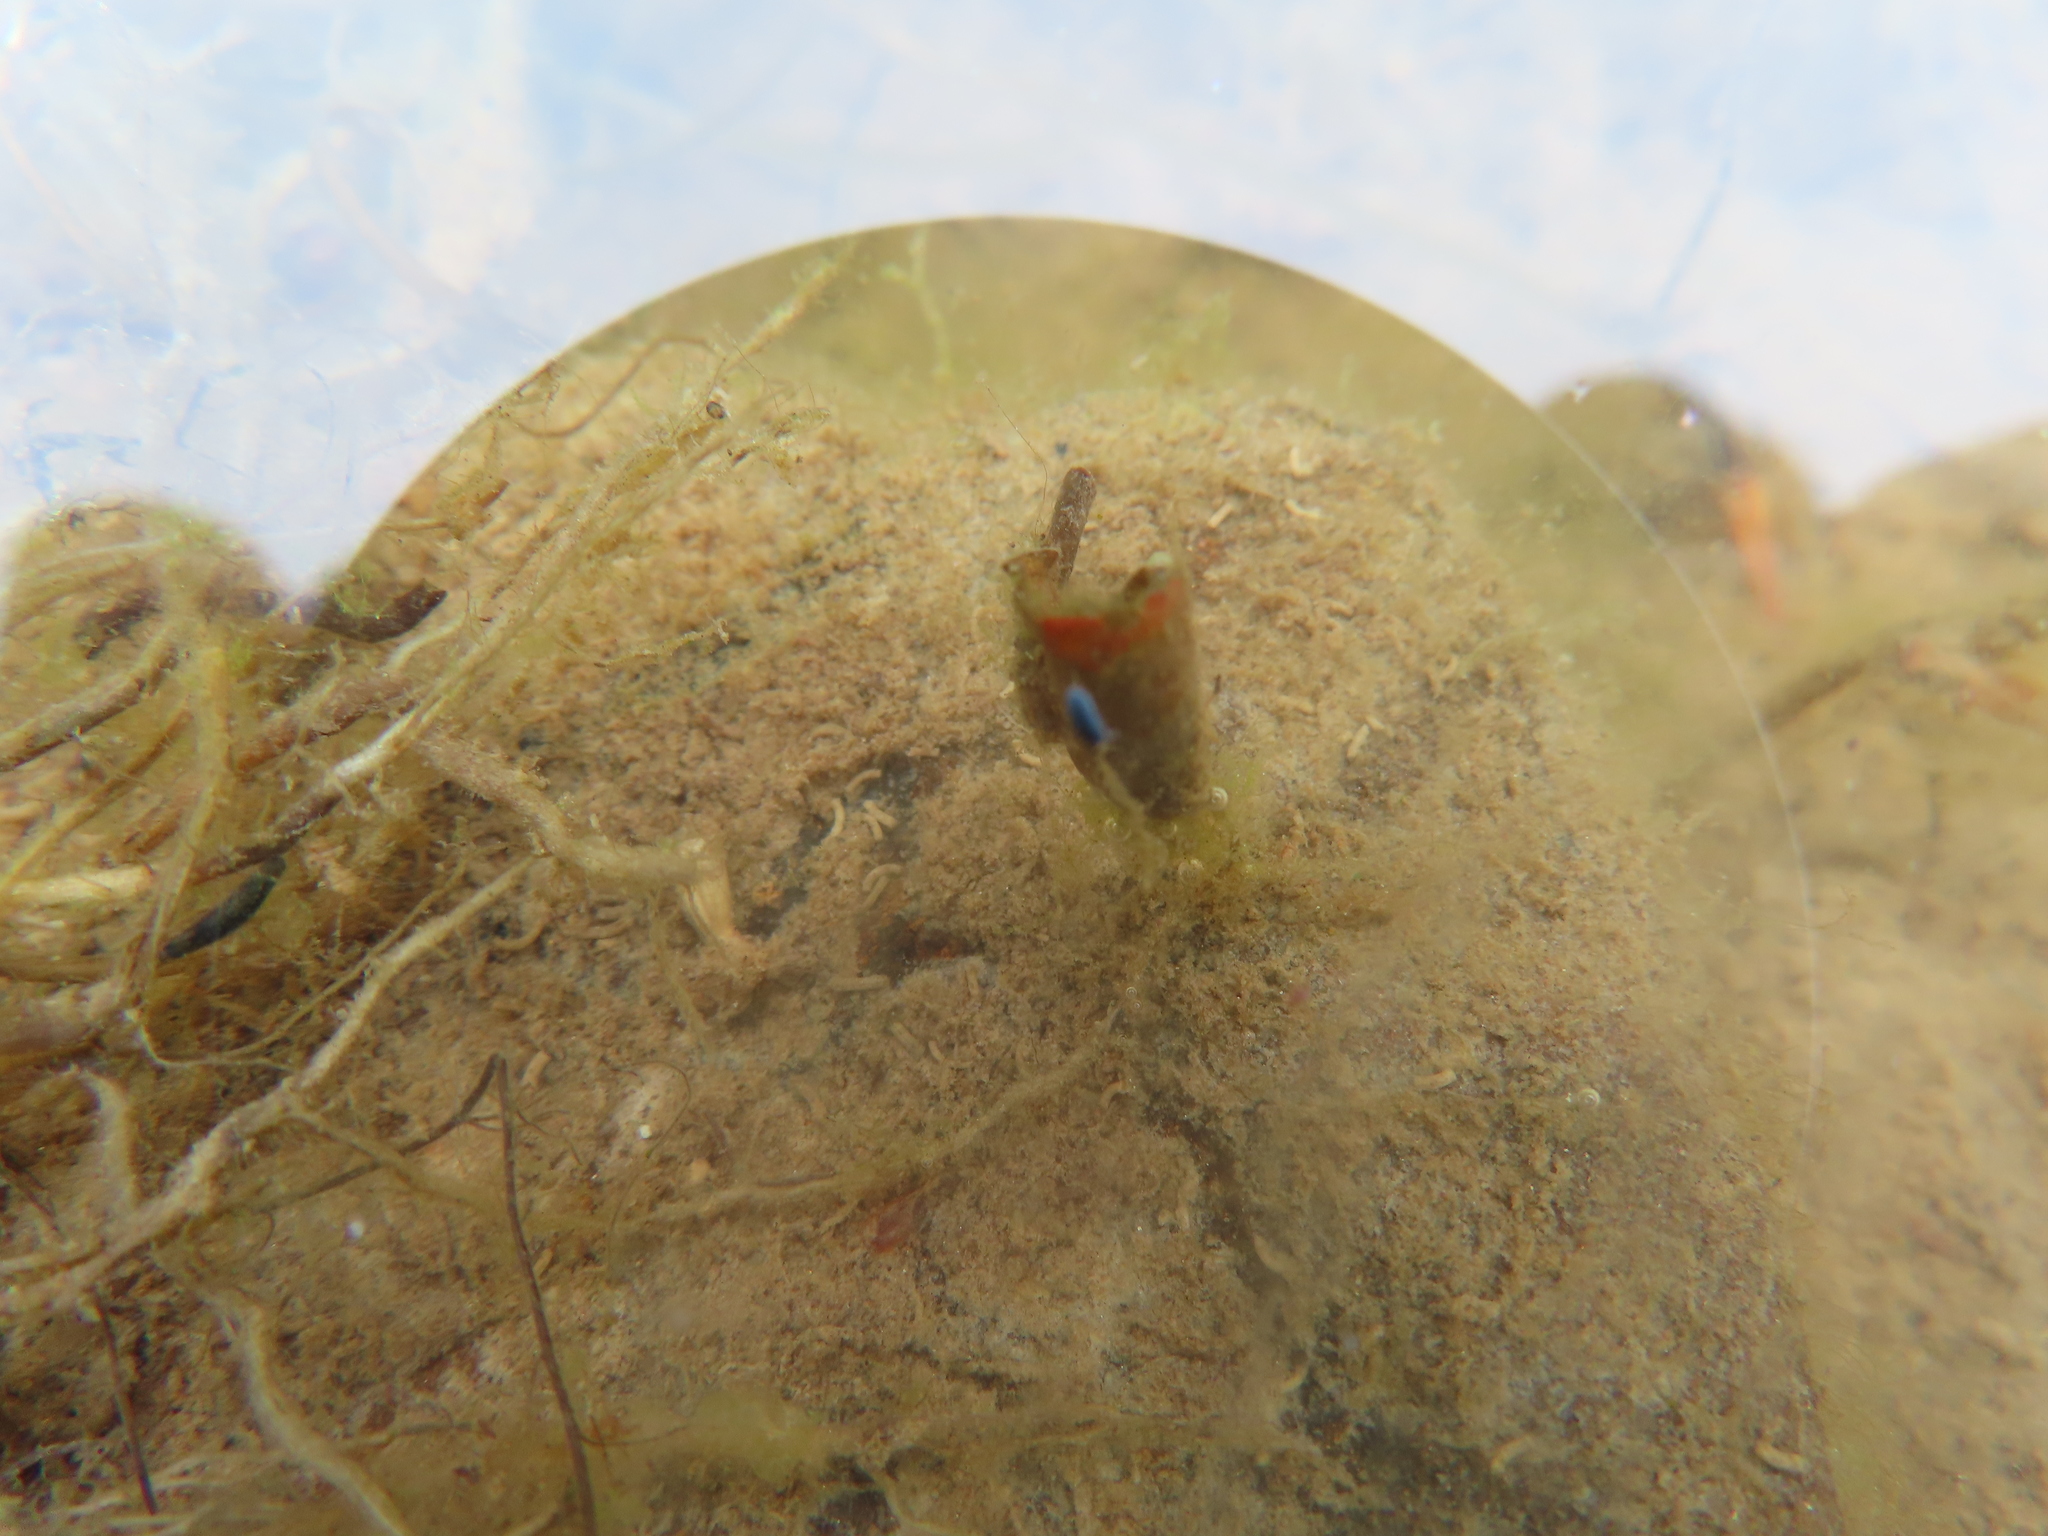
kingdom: Animalia
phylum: Arthropoda
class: Collembola
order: Poduromorpha
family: Poduridae
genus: Podura
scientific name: Podura aquatica
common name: Water springtail
